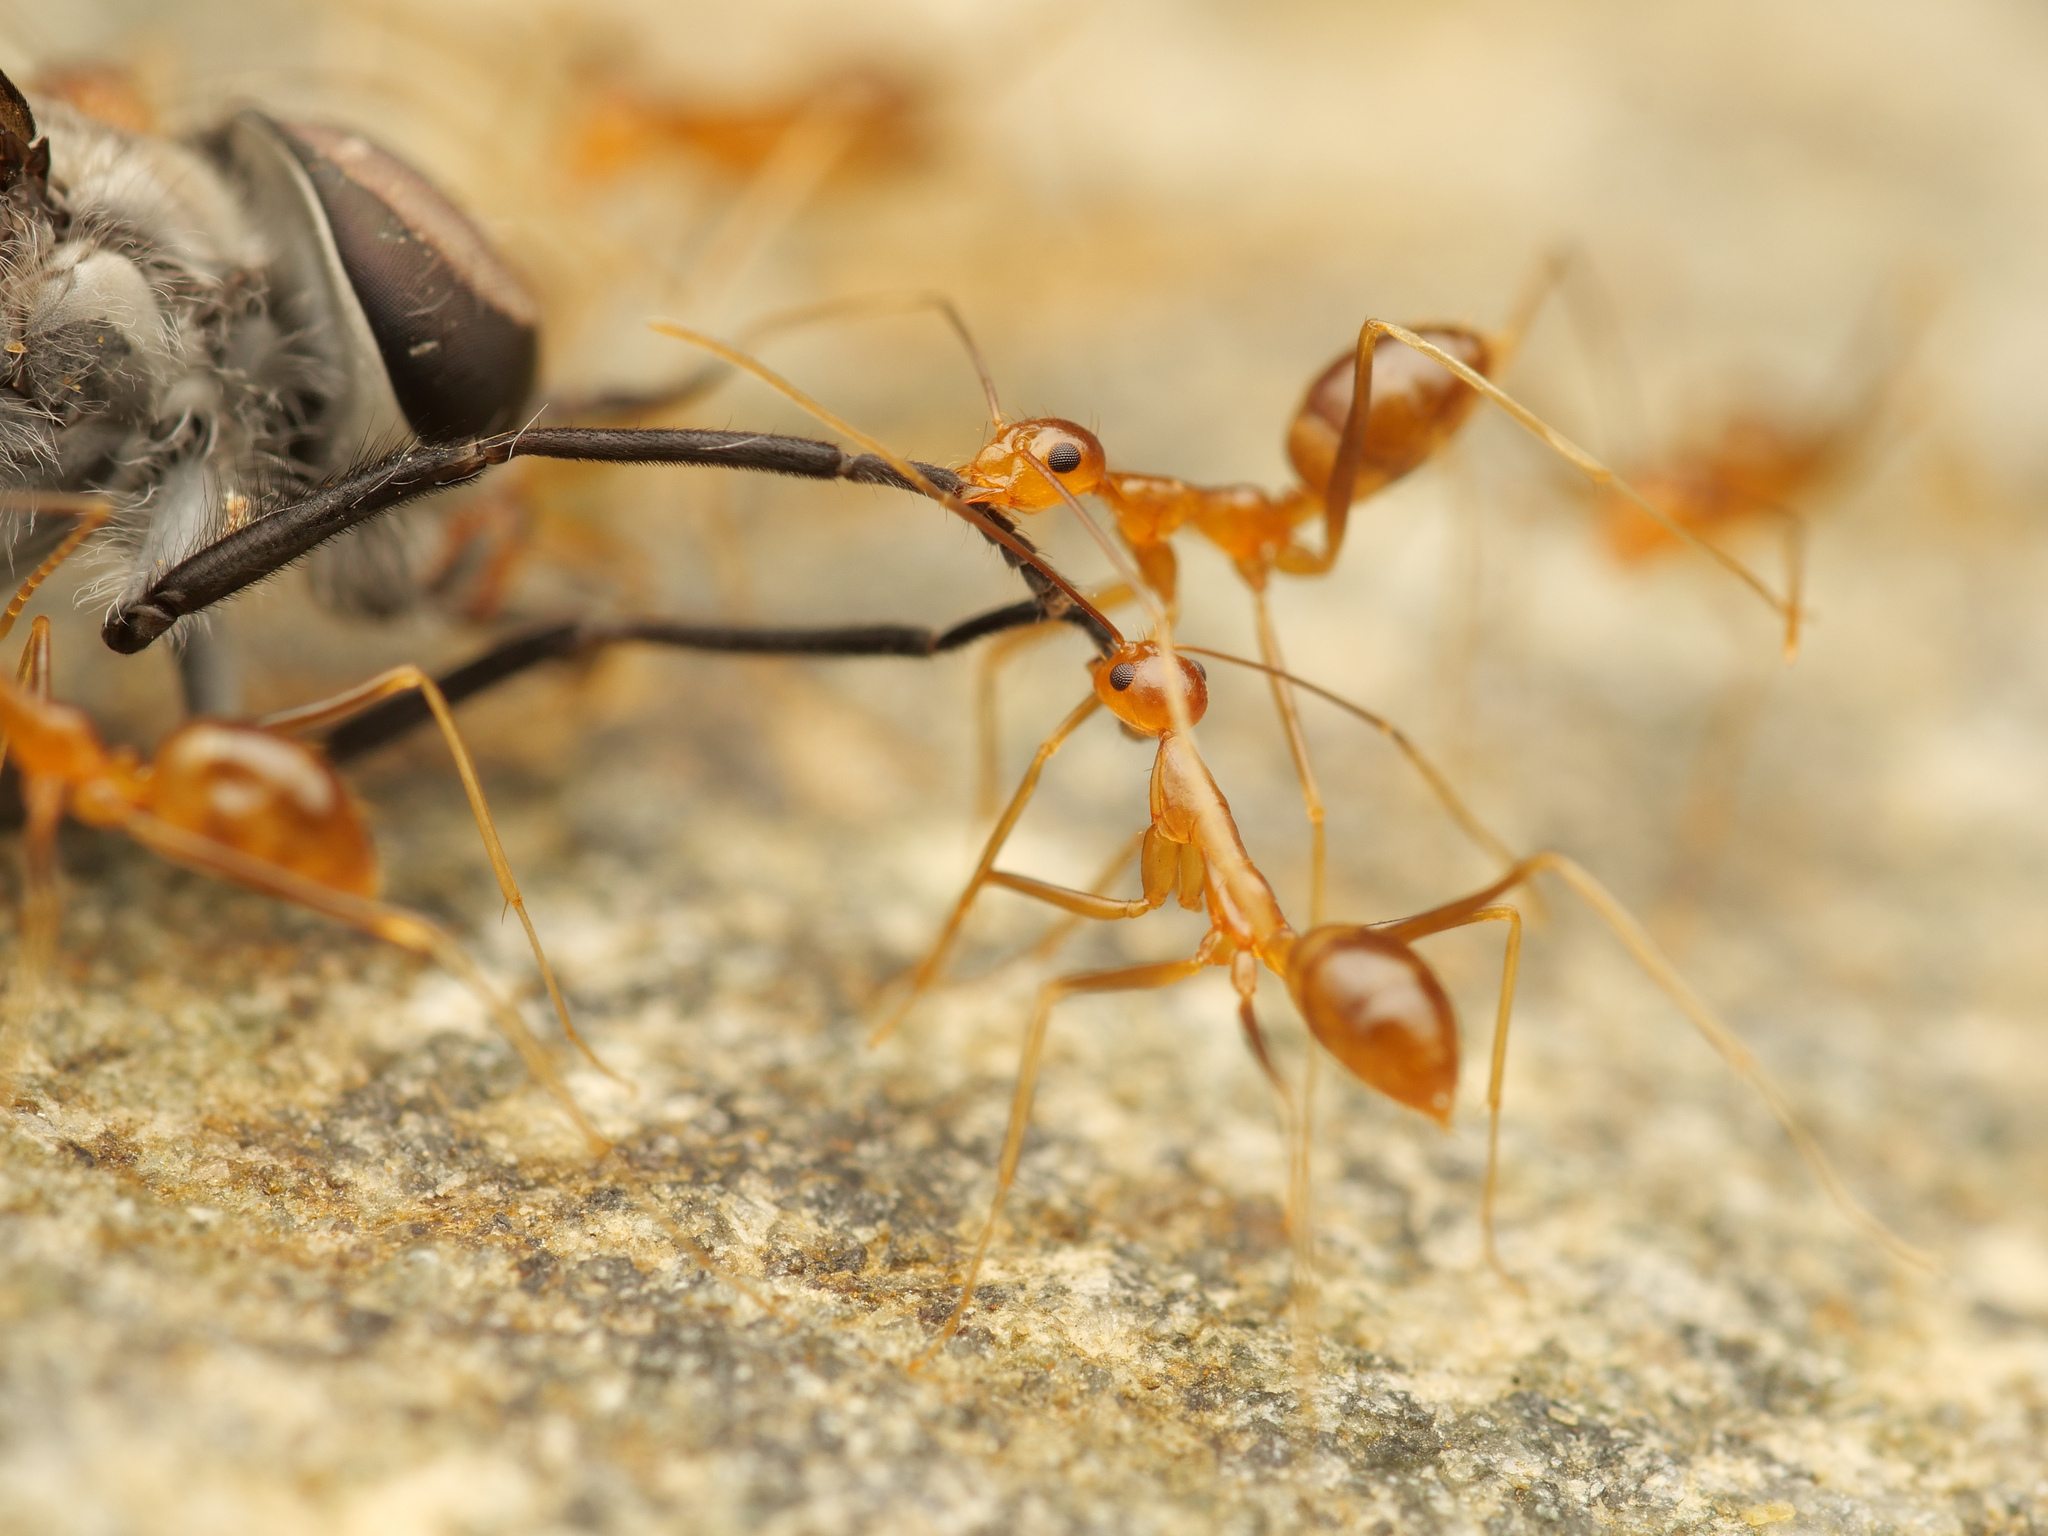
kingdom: Animalia
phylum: Arthropoda
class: Insecta
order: Hymenoptera
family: Formicidae
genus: Anoplolepis
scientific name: Anoplolepis gracilipes
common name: Ant
